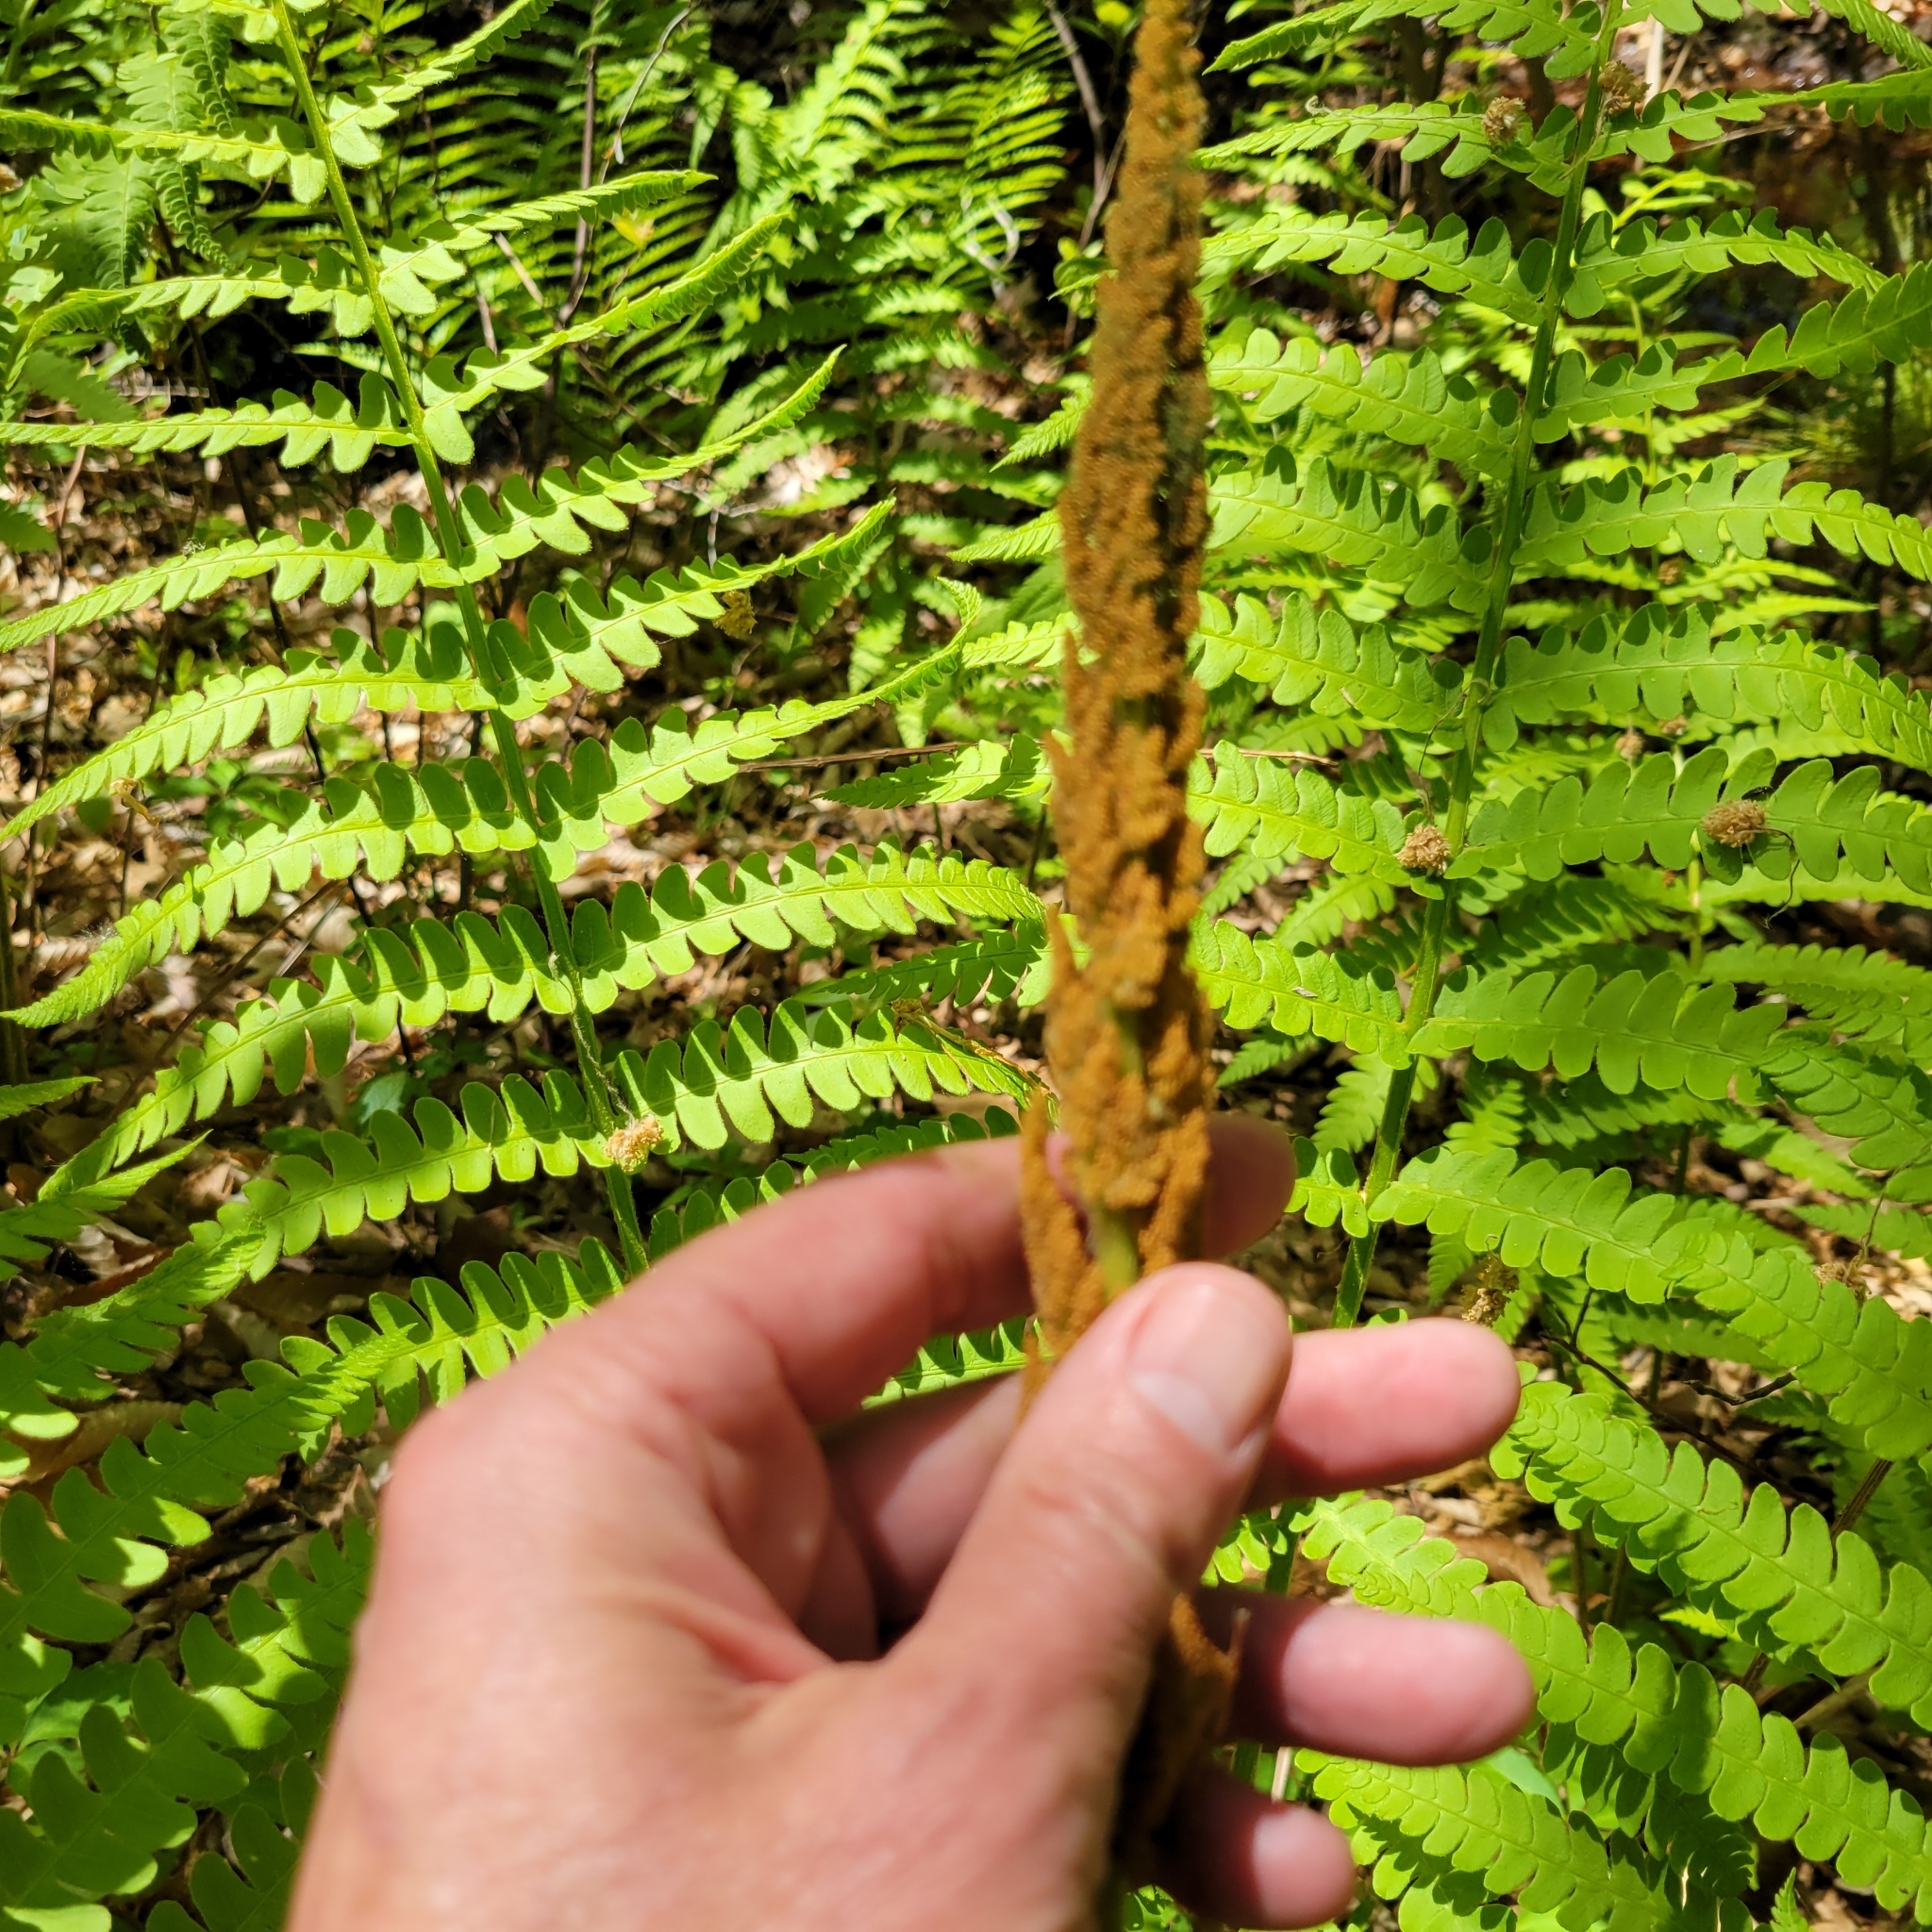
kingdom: Plantae
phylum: Tracheophyta
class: Polypodiopsida
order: Osmundales
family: Osmundaceae
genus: Osmundastrum
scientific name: Osmundastrum cinnamomeum
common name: Cinnamon fern
